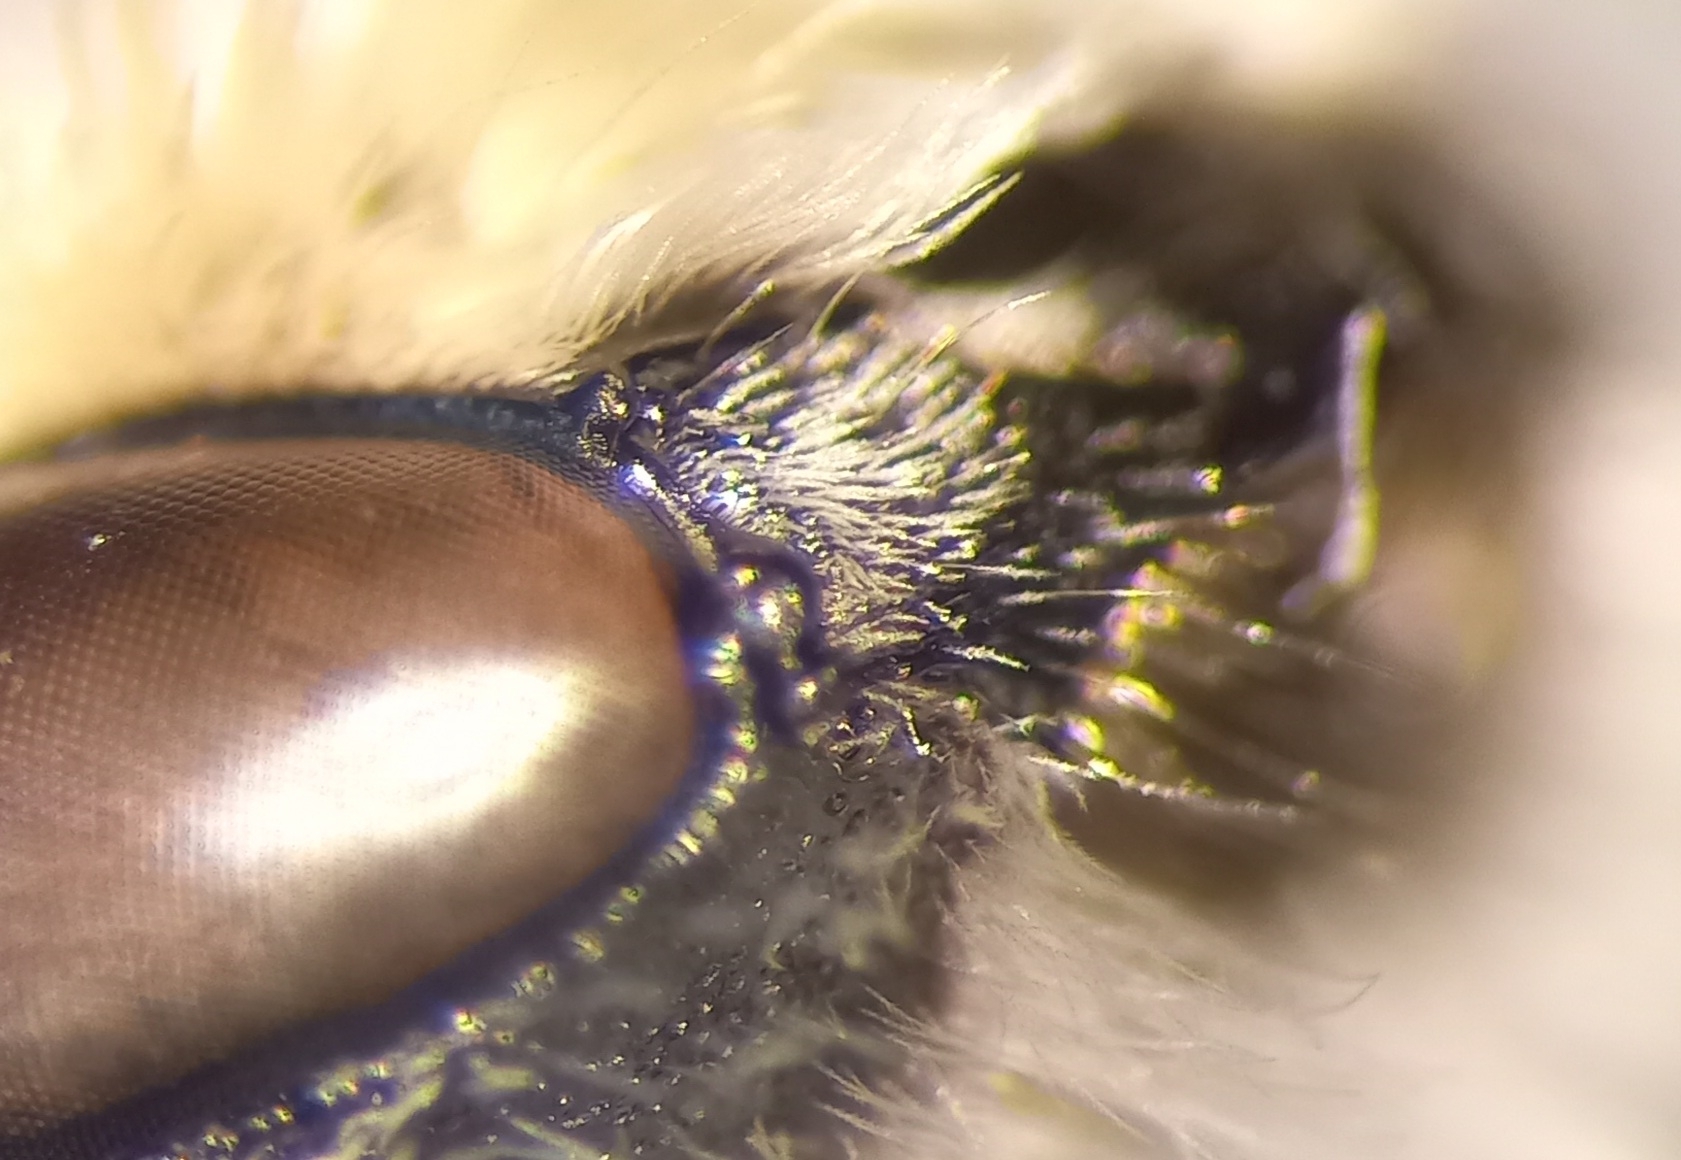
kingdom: Animalia
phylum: Arthropoda
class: Insecta
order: Hymenoptera
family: Megachilidae
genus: Megachile
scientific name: Megachile pilidens
